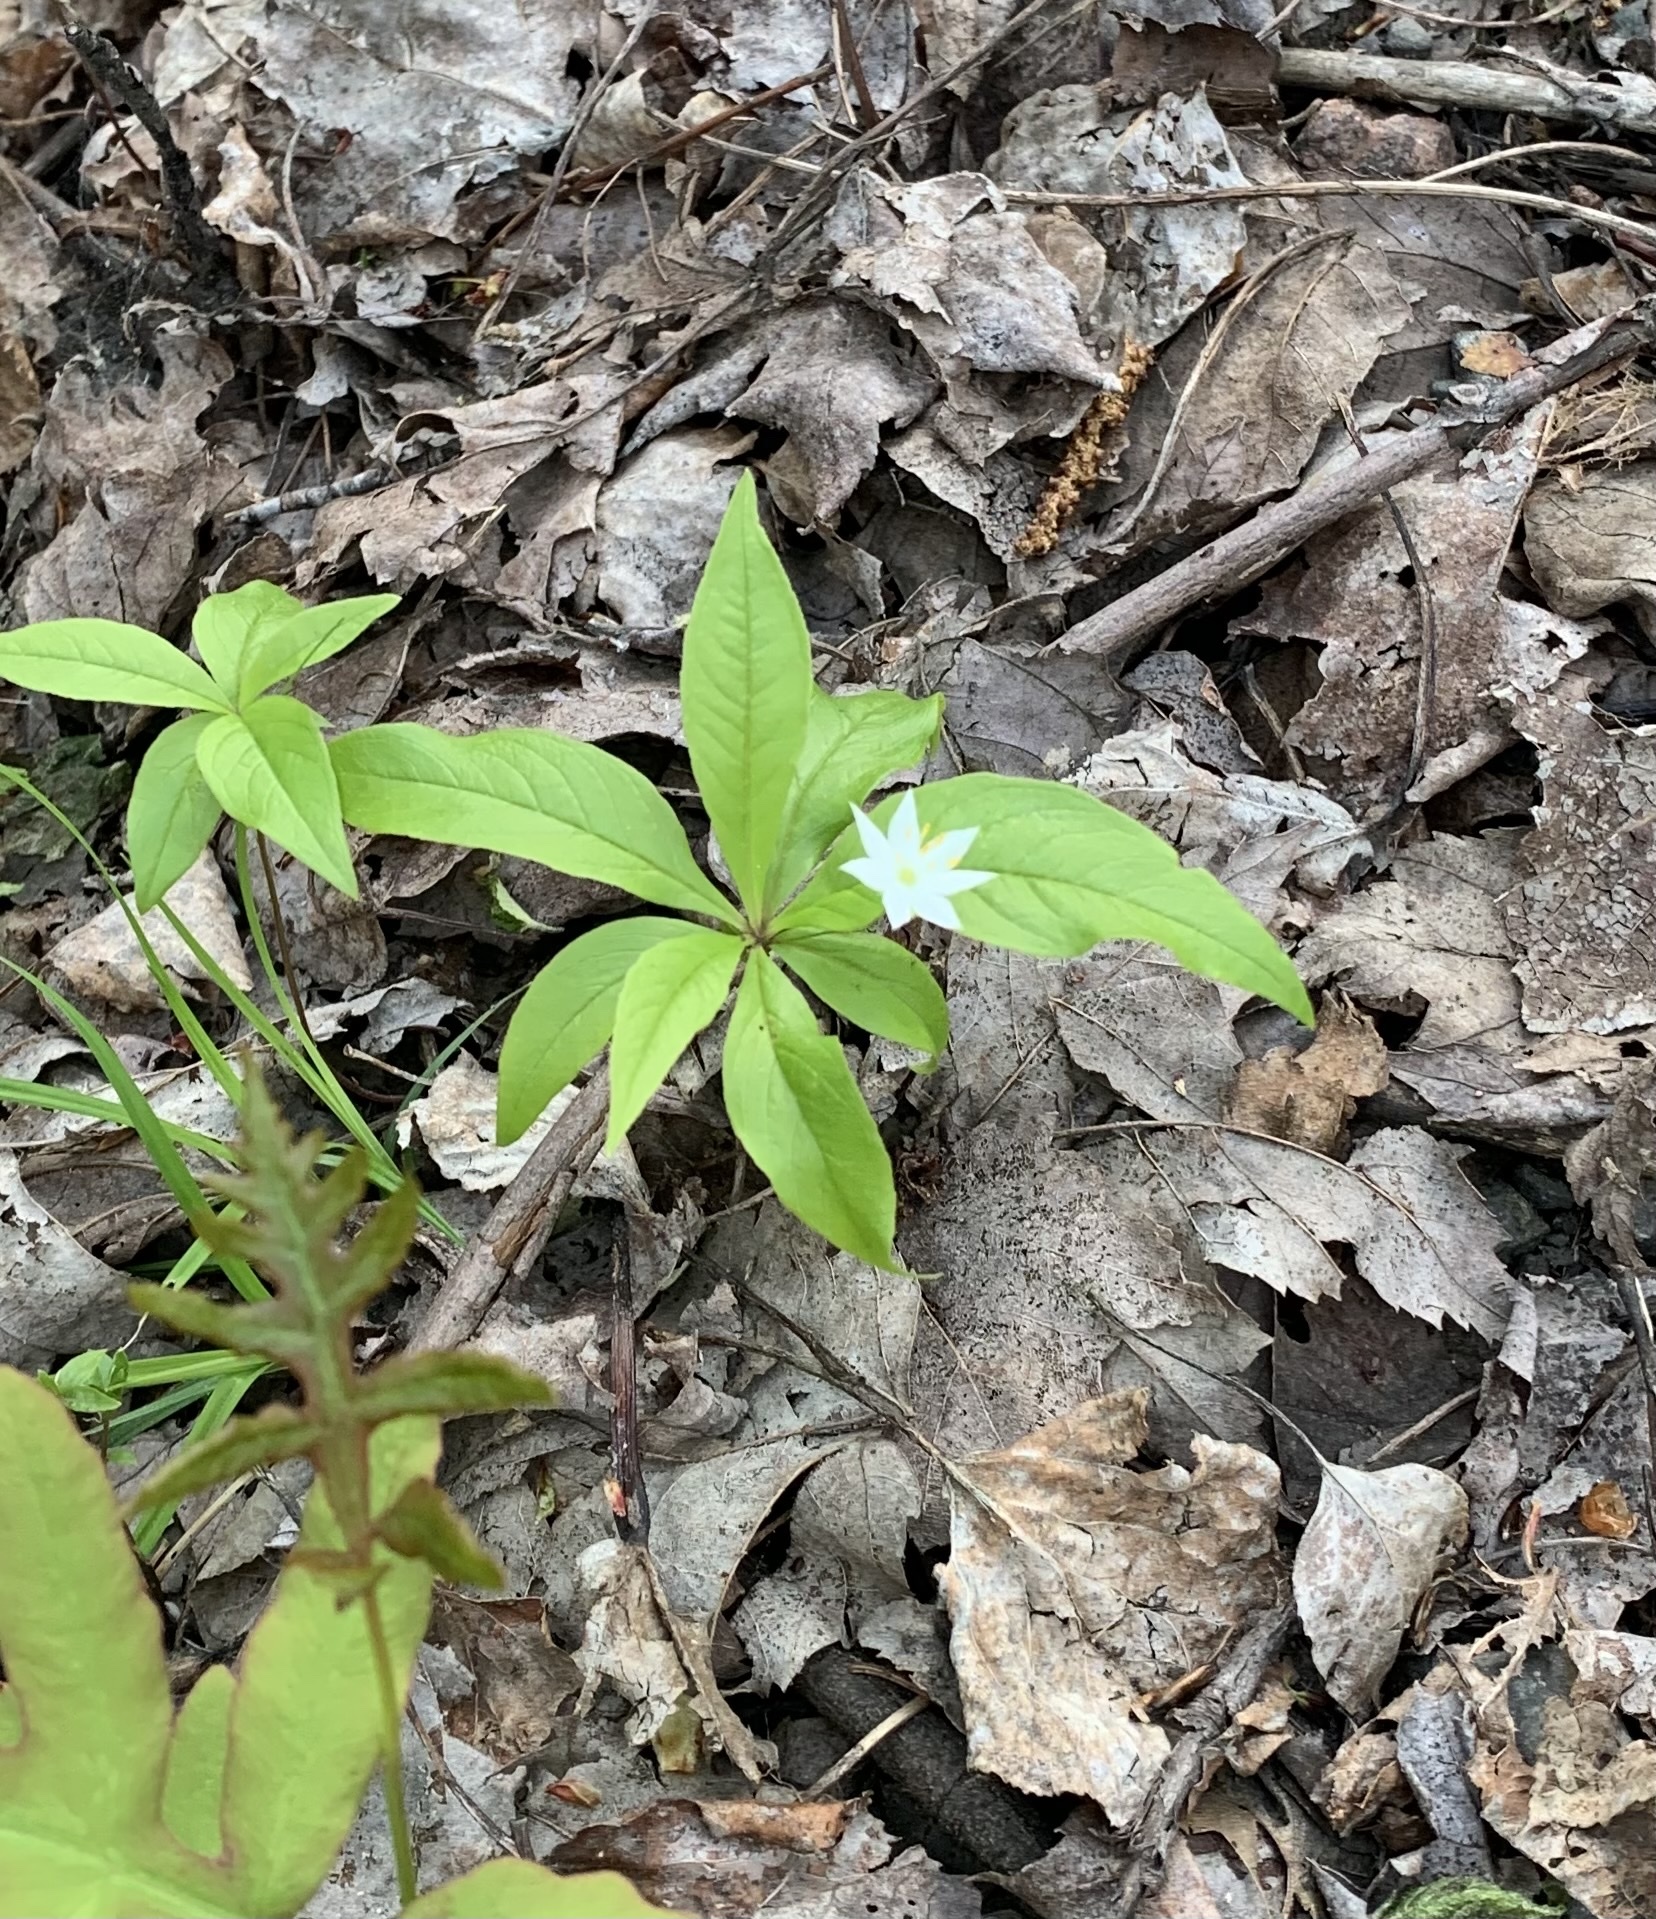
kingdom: Plantae
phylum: Tracheophyta
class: Magnoliopsida
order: Ericales
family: Primulaceae
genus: Lysimachia
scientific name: Lysimachia borealis
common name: American starflower
